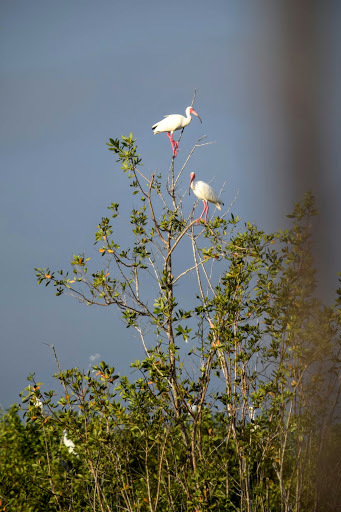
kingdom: Animalia
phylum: Chordata
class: Aves
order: Pelecaniformes
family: Threskiornithidae
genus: Eudocimus
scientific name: Eudocimus albus
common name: White ibis
